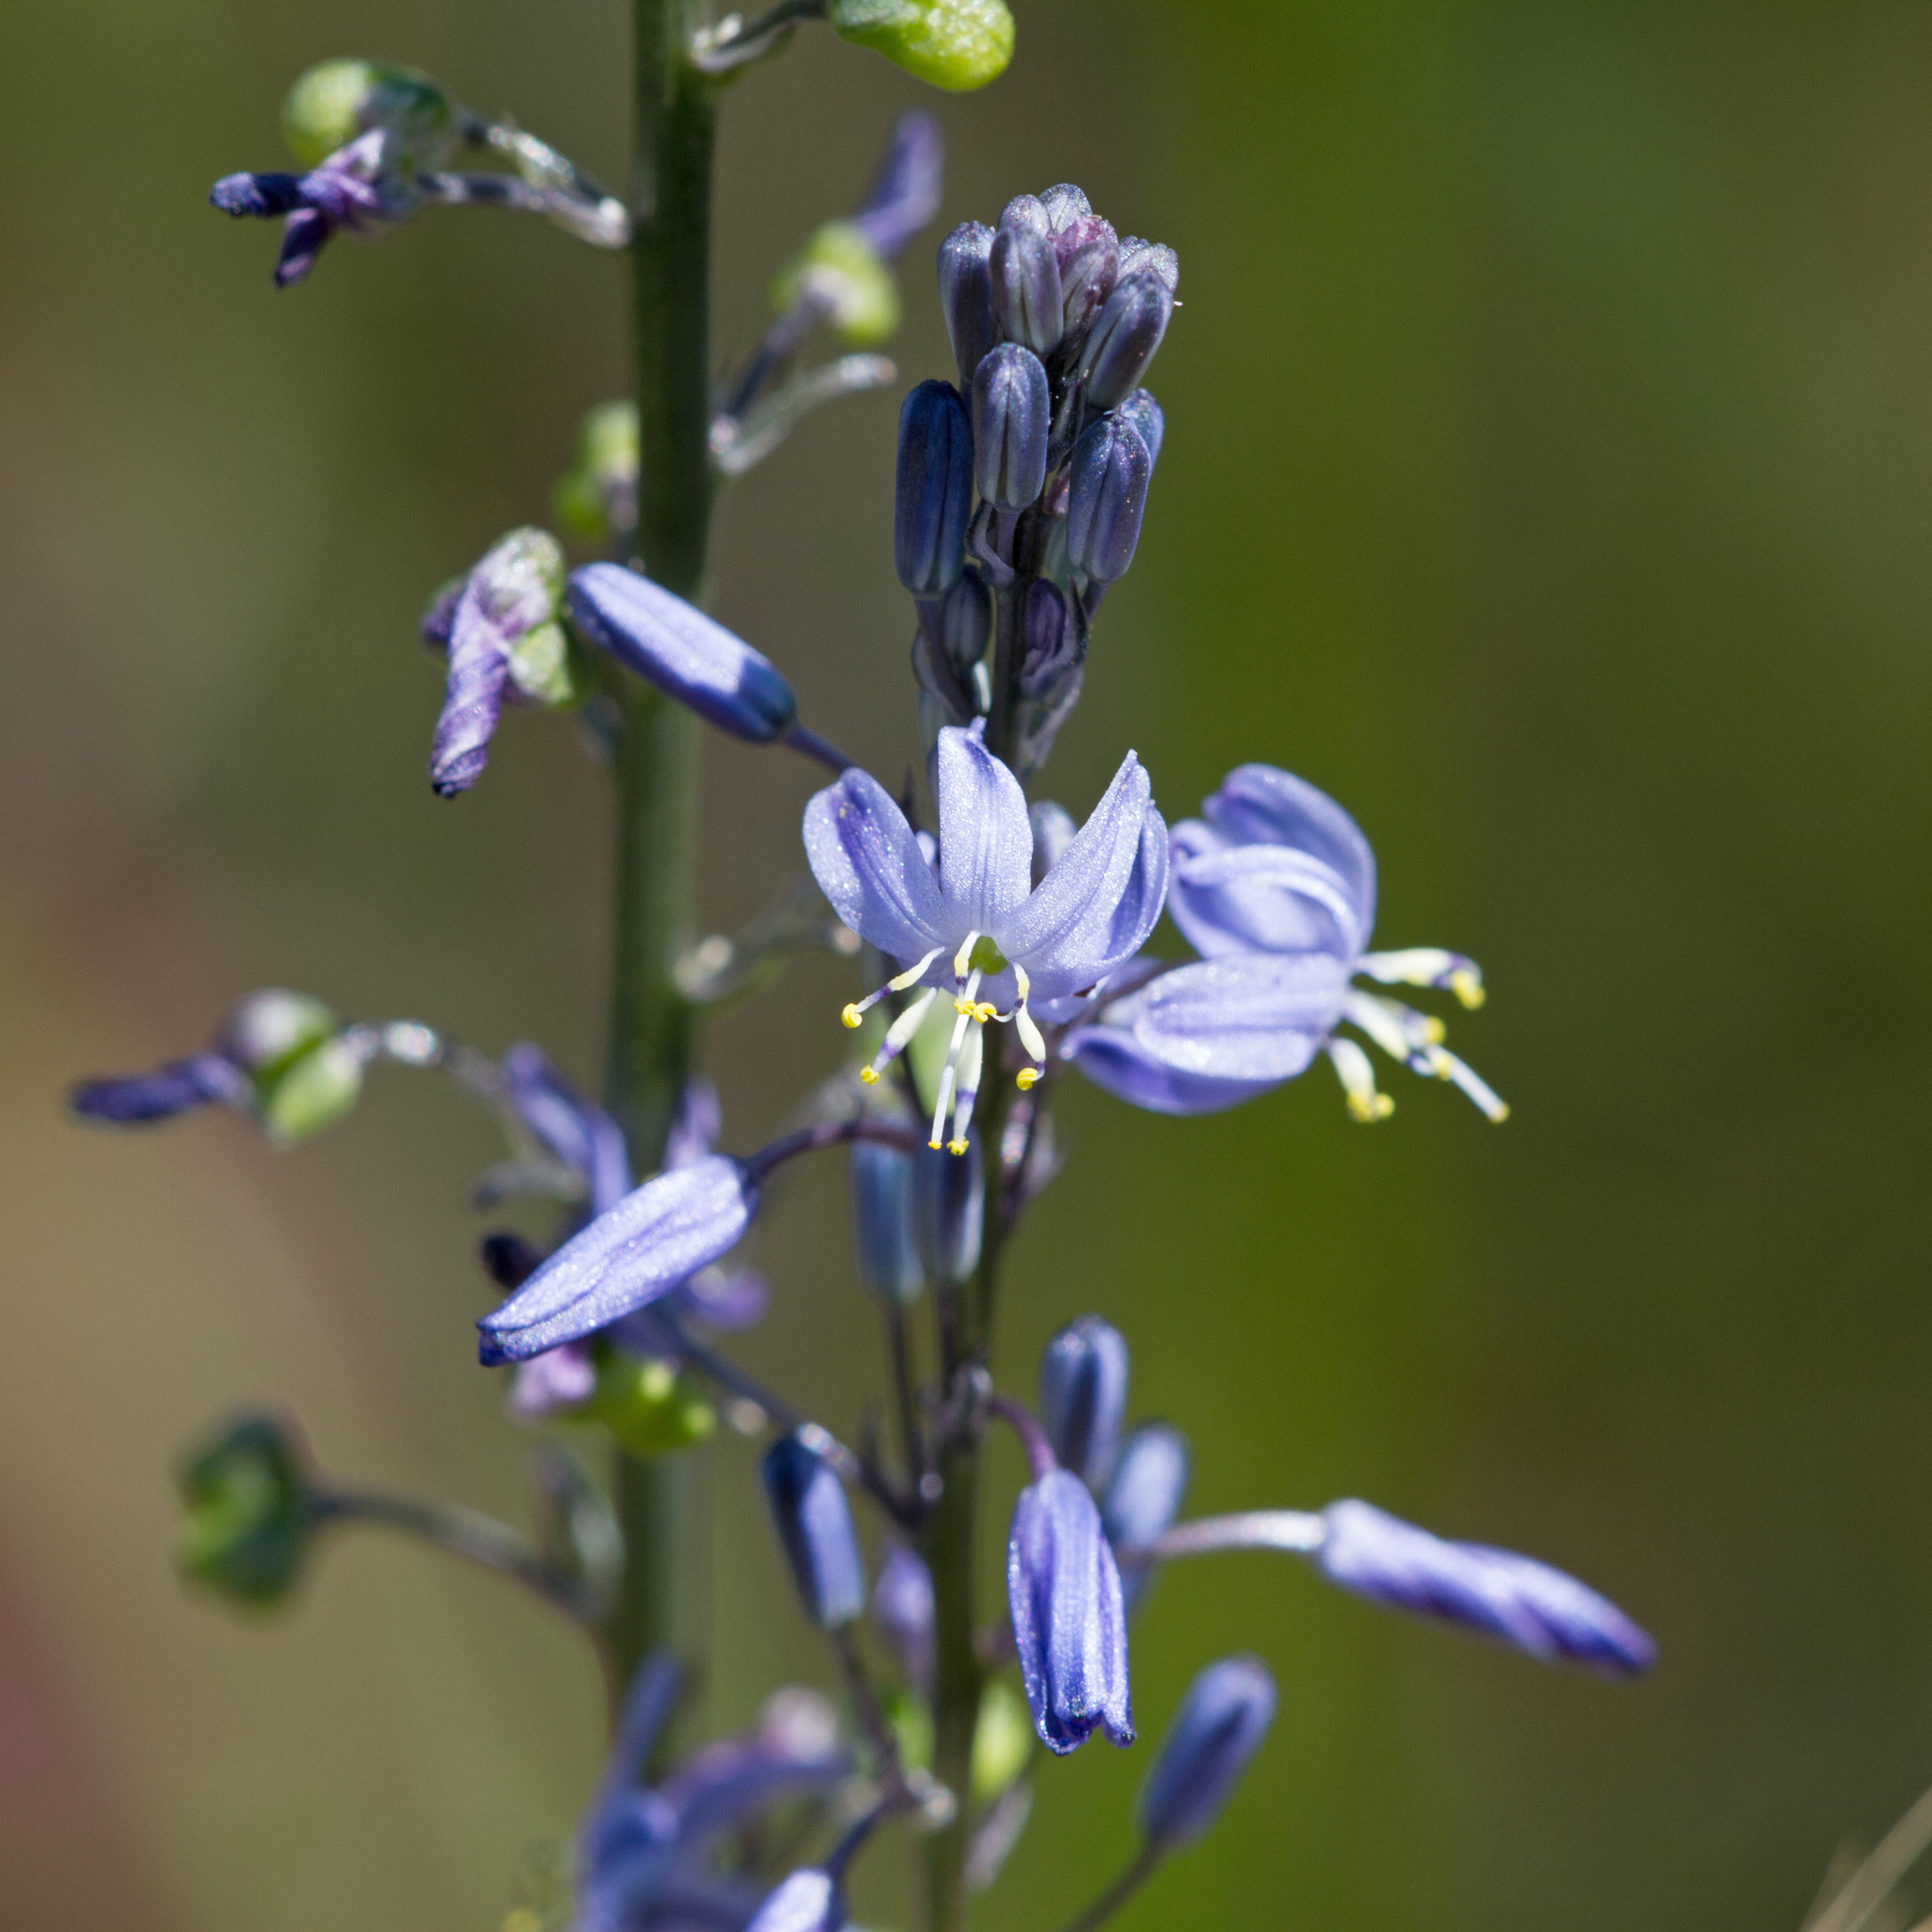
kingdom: Plantae
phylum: Tracheophyta
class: Liliopsida
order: Asparagales
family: Asphodelaceae
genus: Caesia
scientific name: Caesia calliantha
